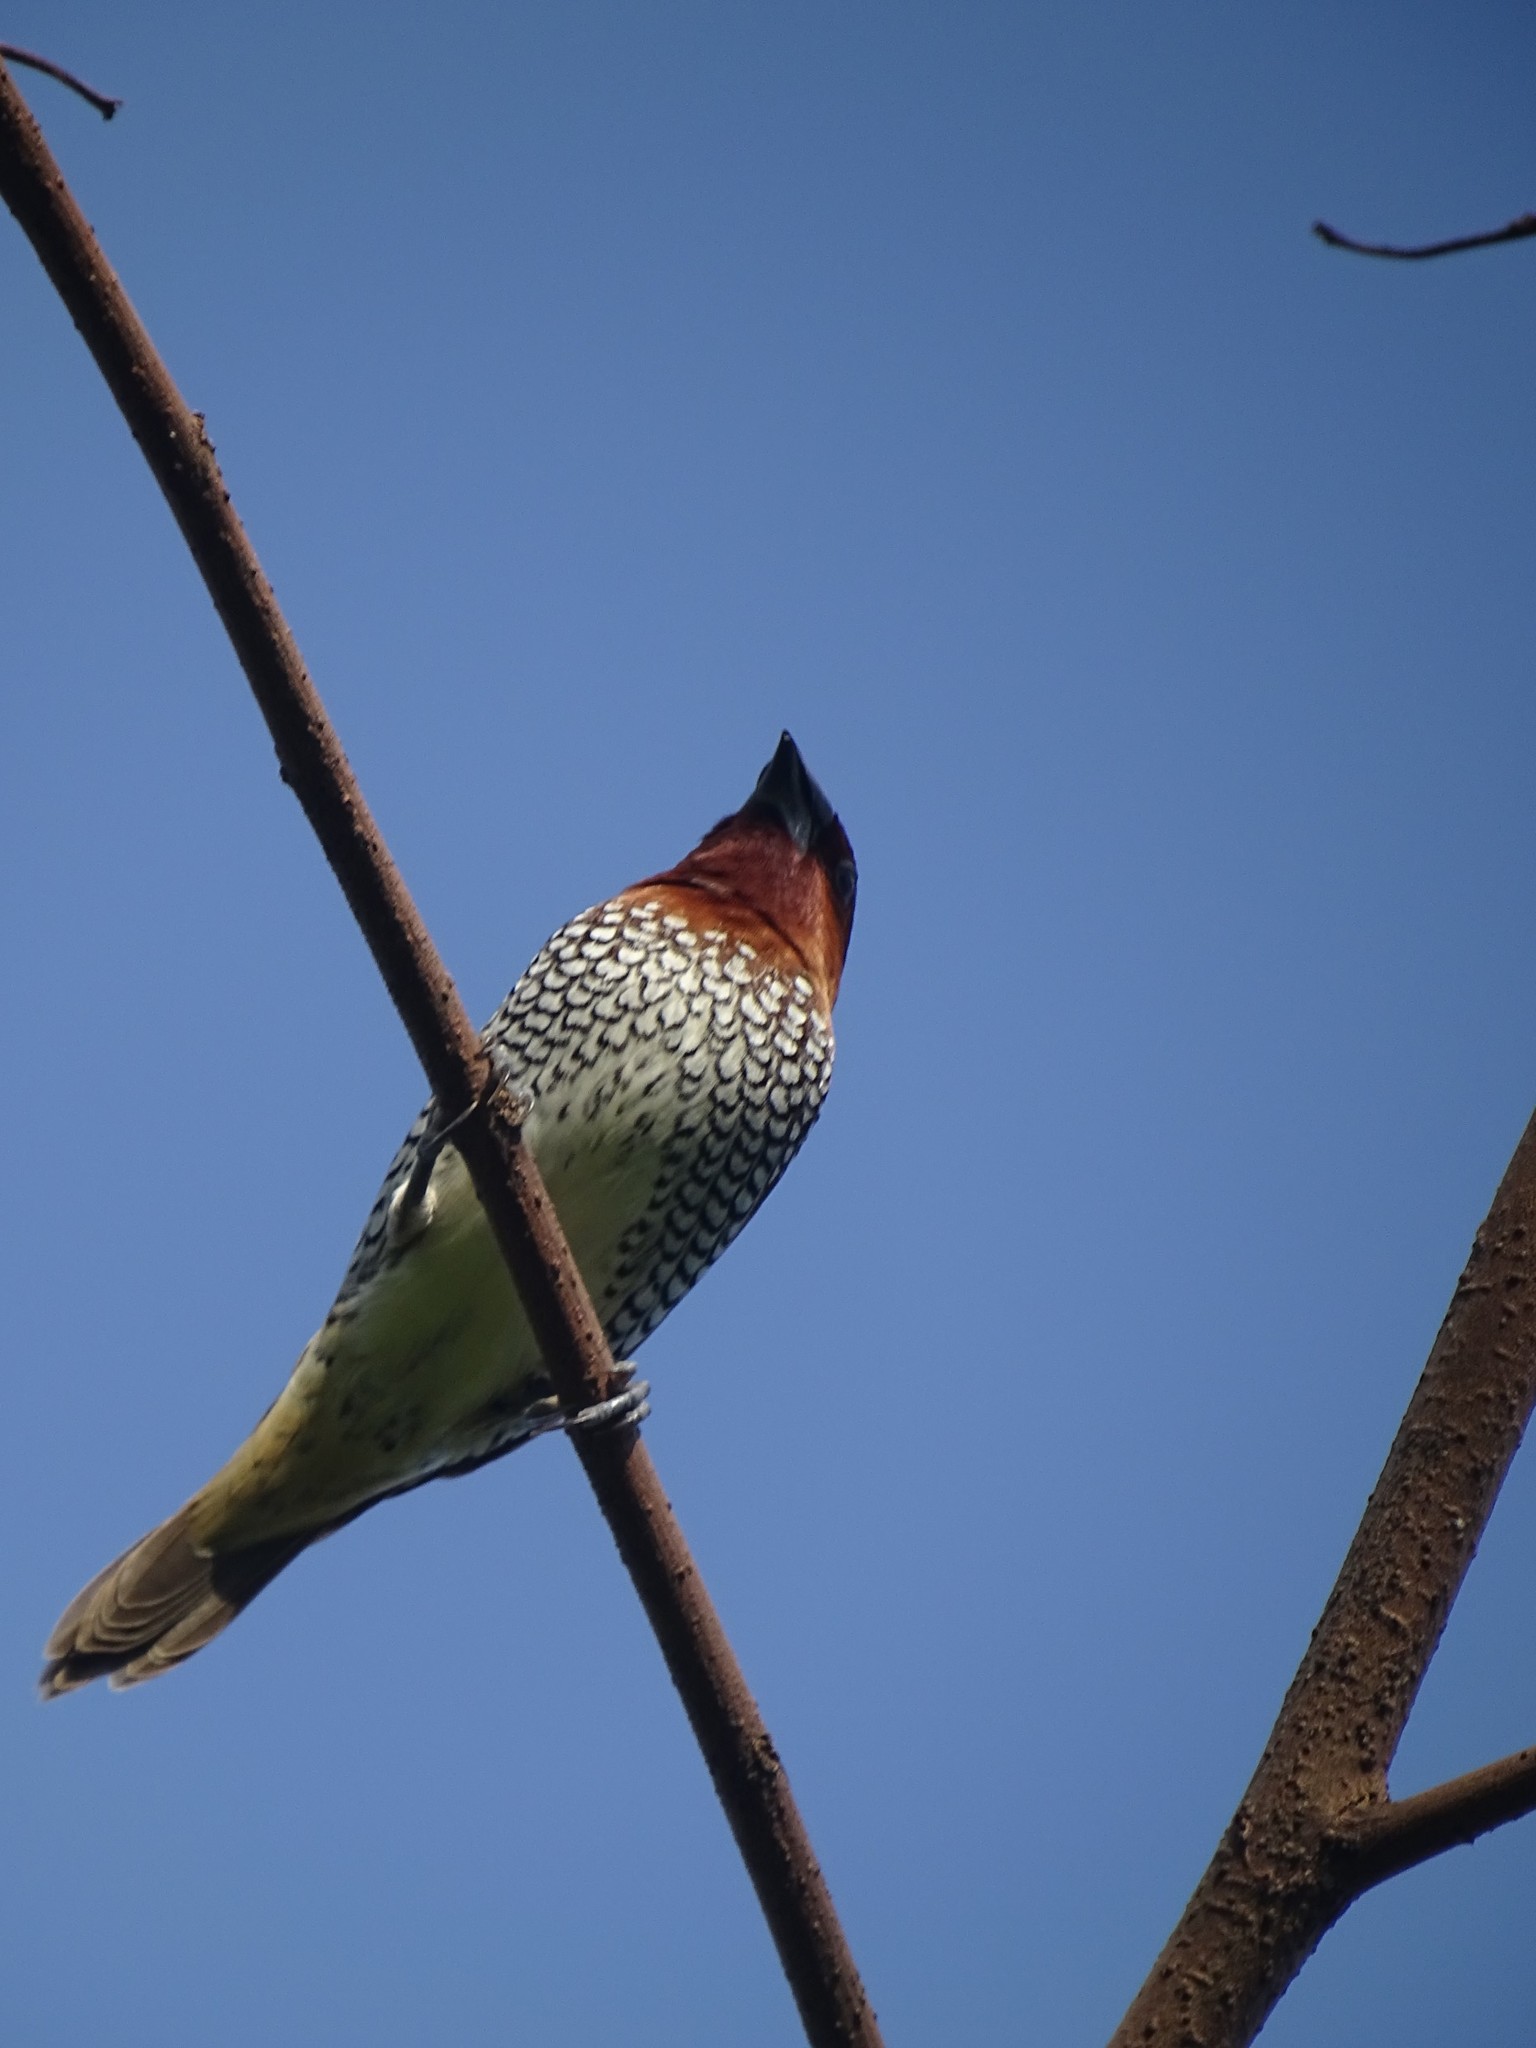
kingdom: Animalia
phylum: Chordata
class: Aves
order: Passeriformes
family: Estrildidae
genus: Lonchura
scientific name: Lonchura punctulata
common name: Scaly-breasted munia
